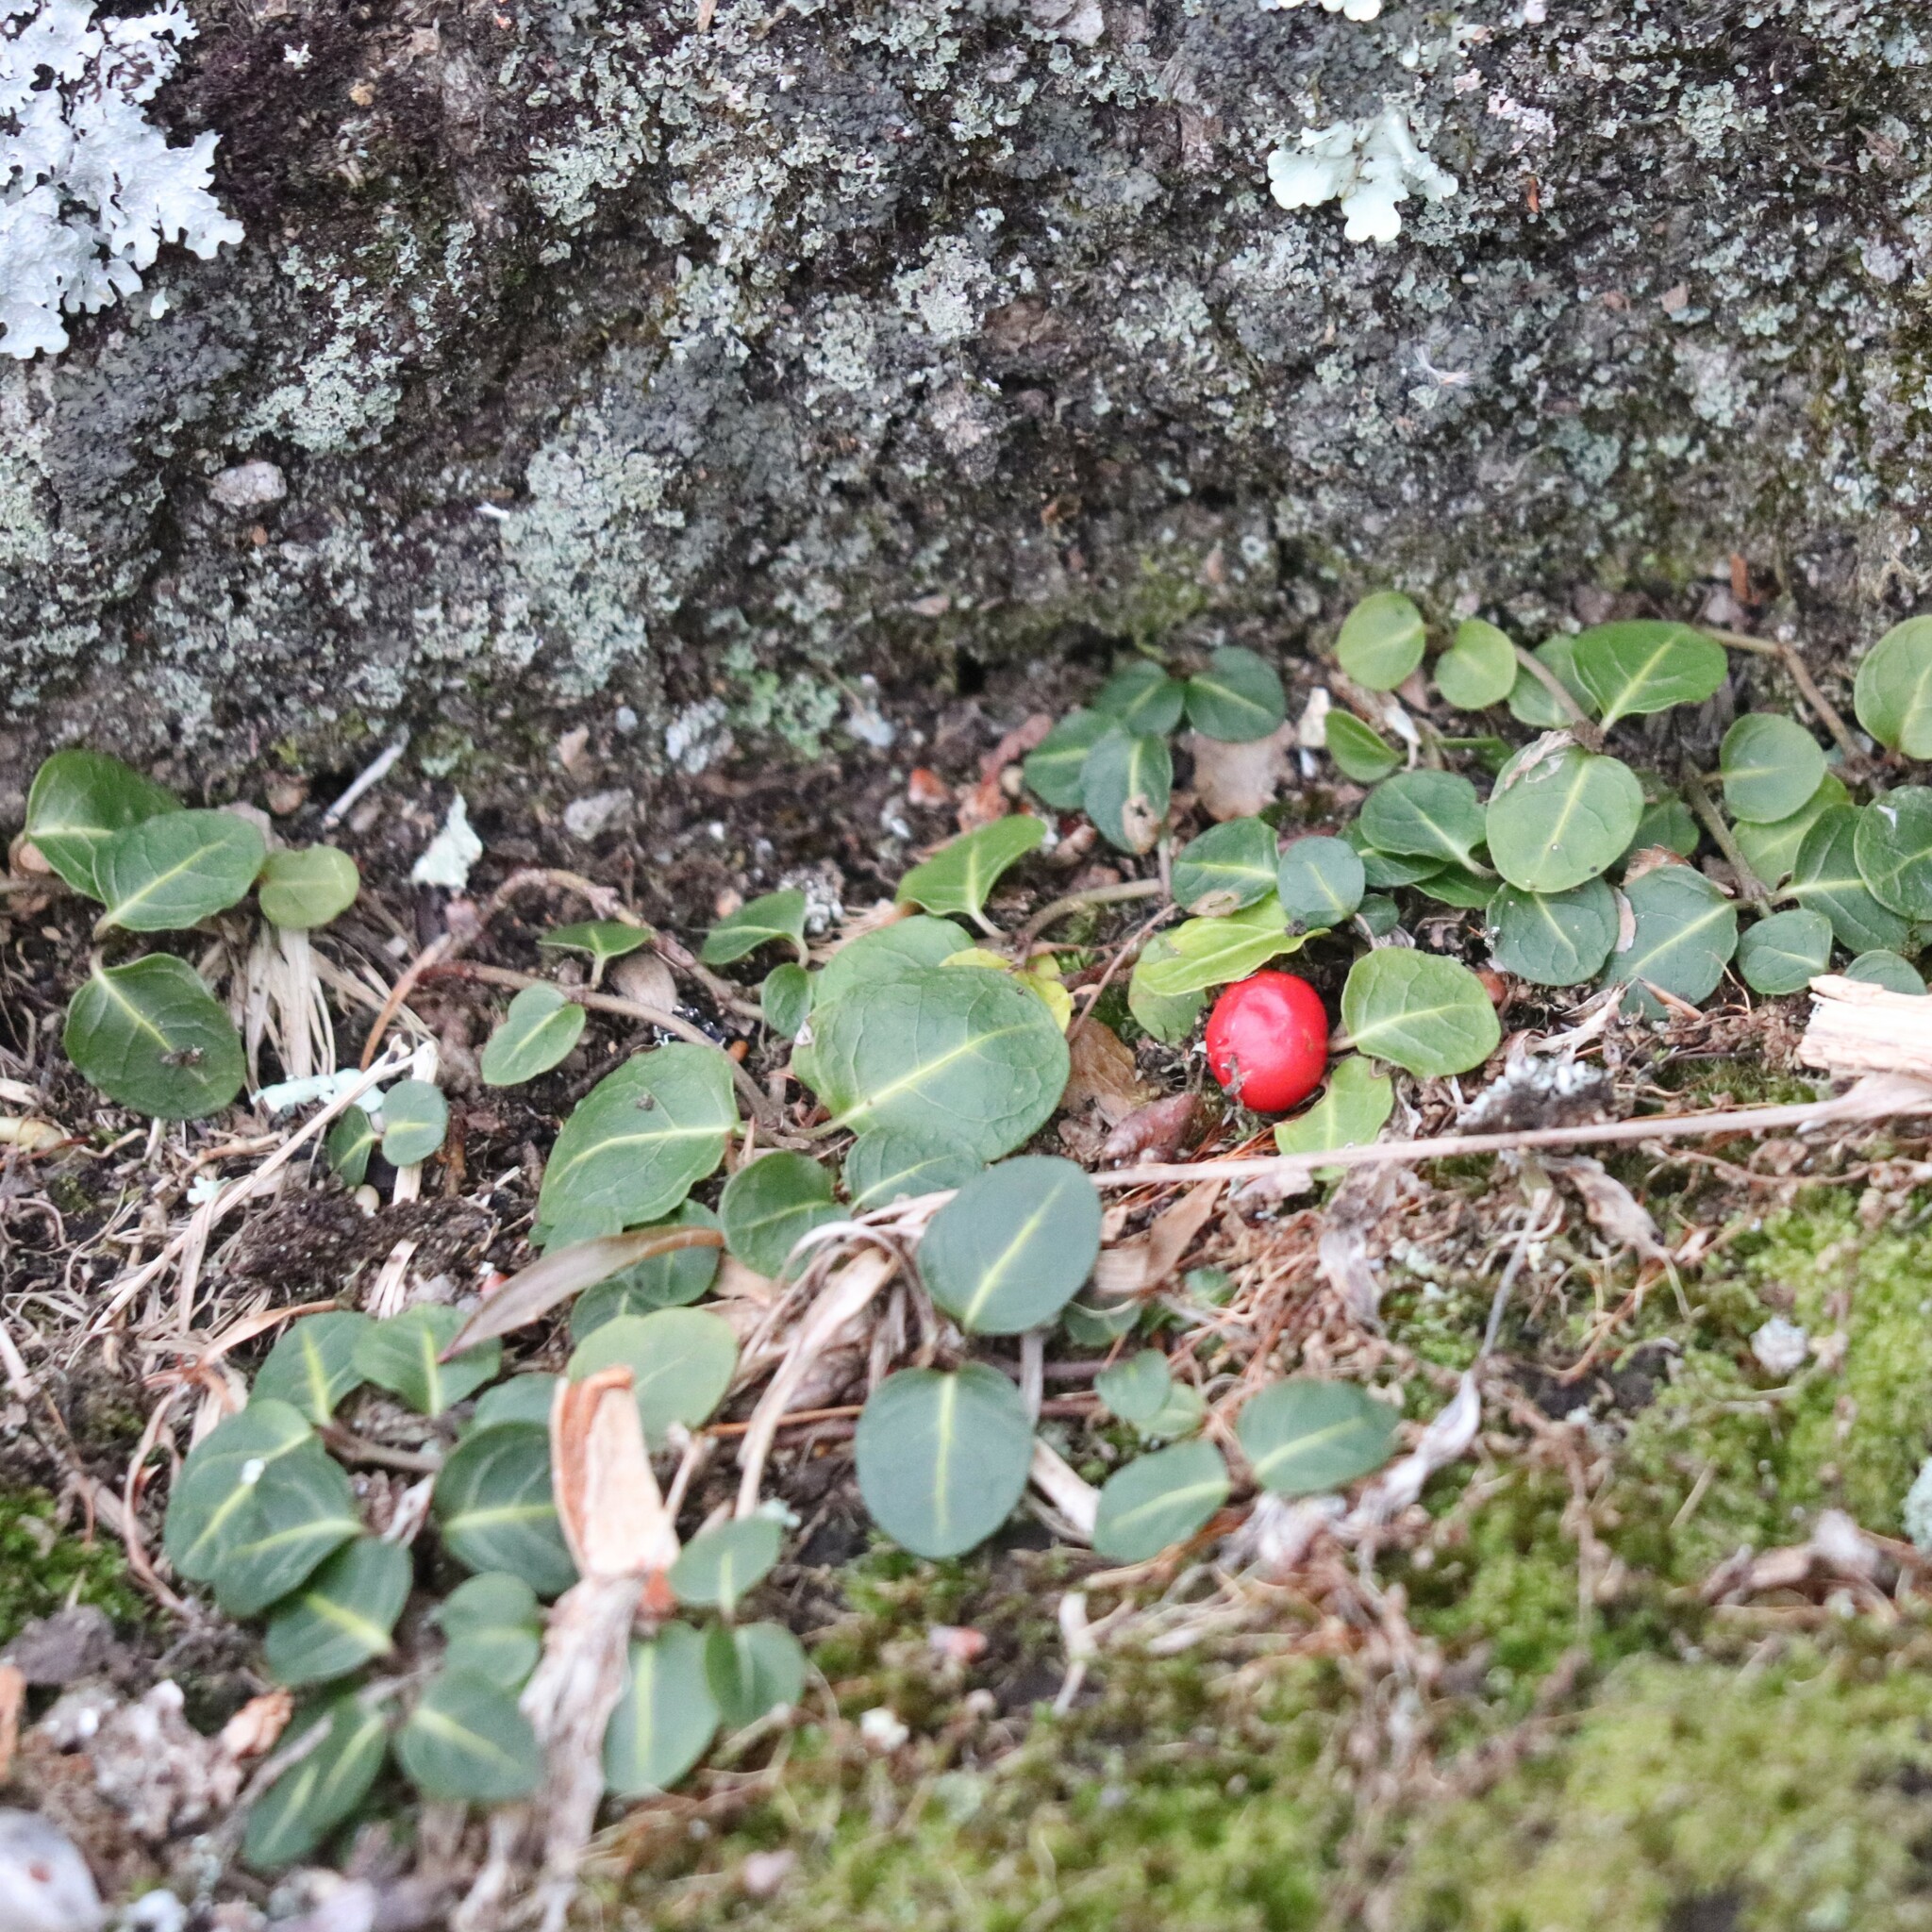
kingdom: Plantae
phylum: Tracheophyta
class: Magnoliopsida
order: Gentianales
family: Rubiaceae
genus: Mitchella
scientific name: Mitchella repens
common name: Partridge-berry
